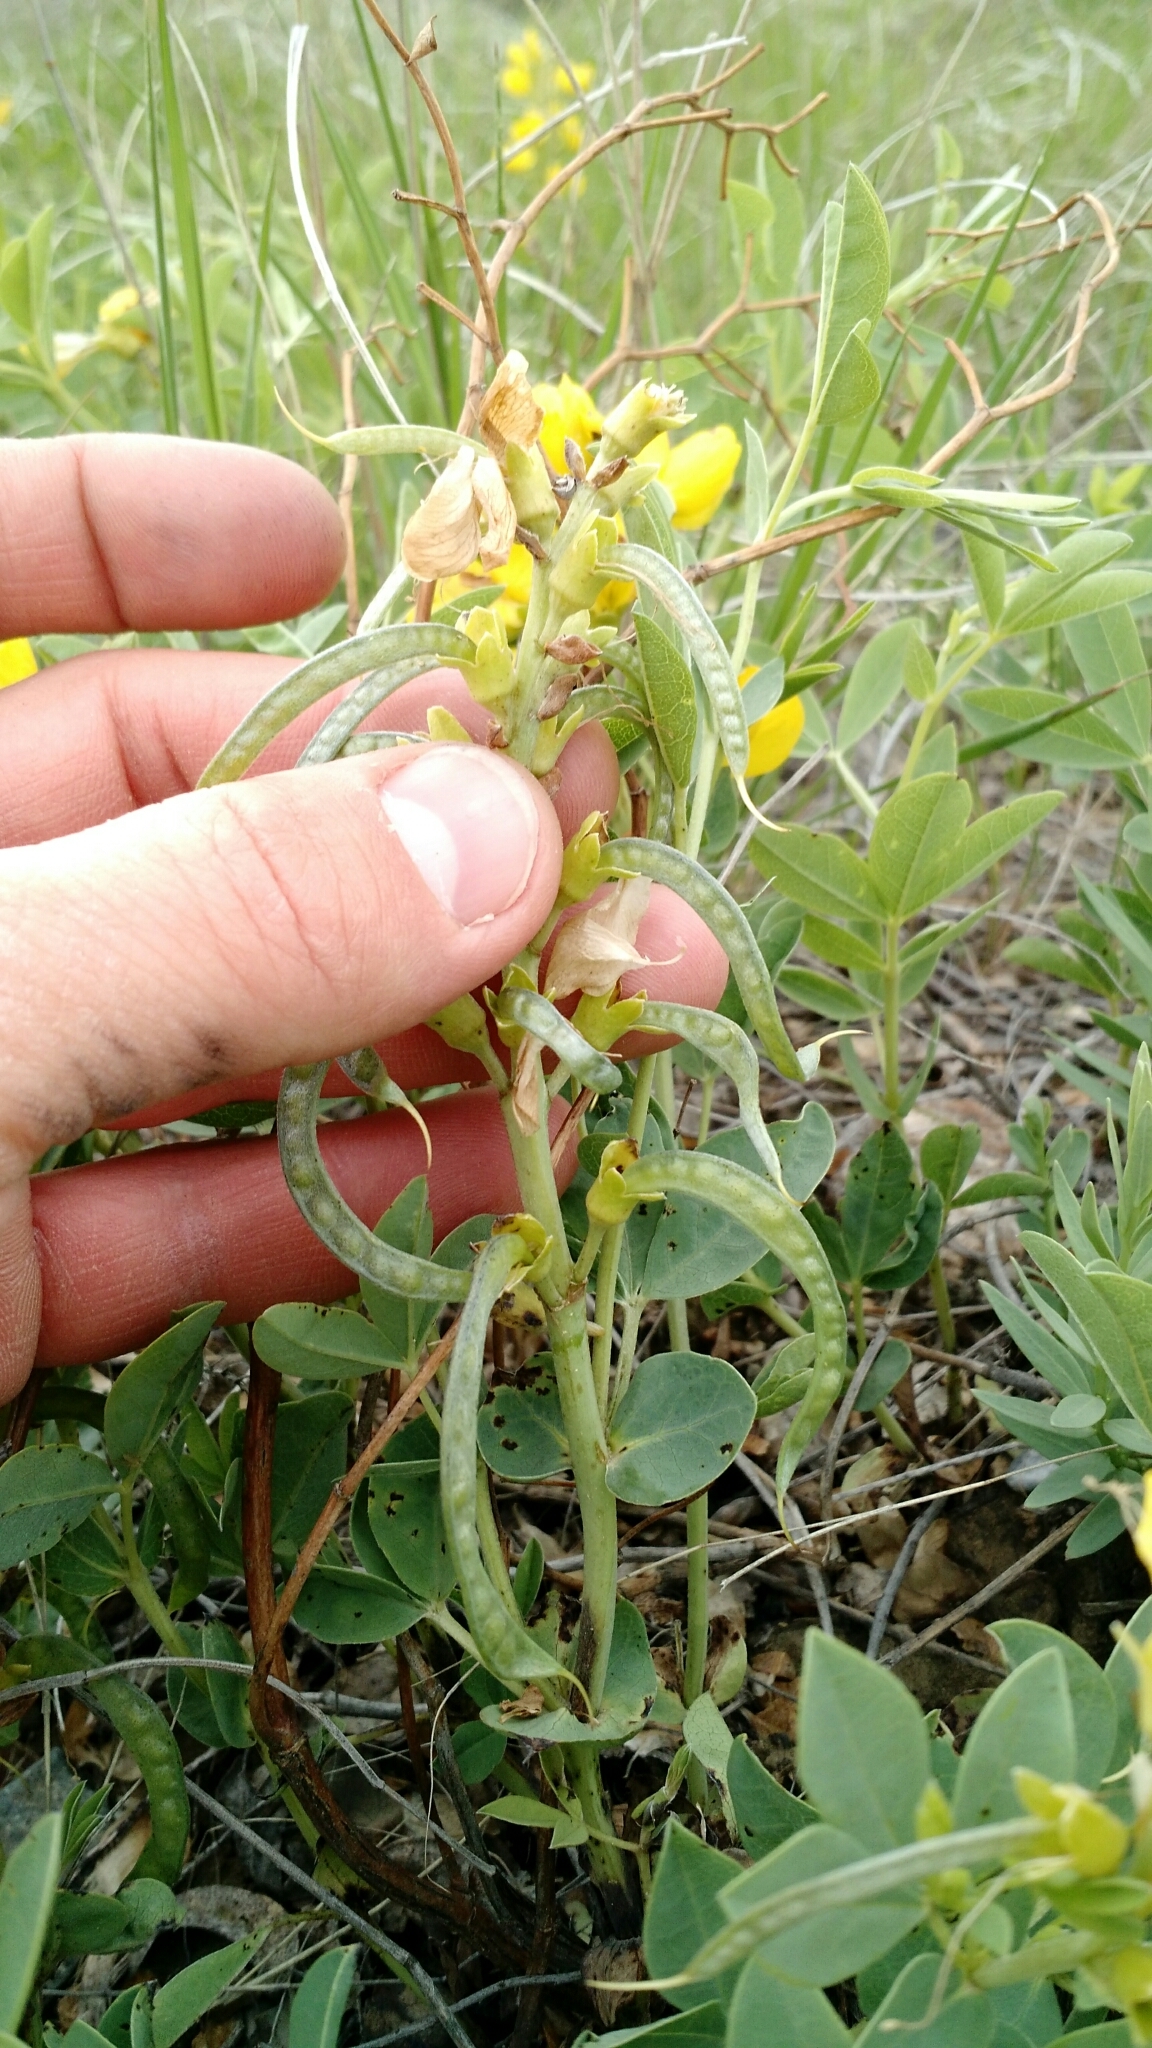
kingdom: Plantae
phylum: Tracheophyta
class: Magnoliopsida
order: Fabales
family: Fabaceae
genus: Thermopsis
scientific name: Thermopsis rhombifolia
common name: Circle-pod-pea
